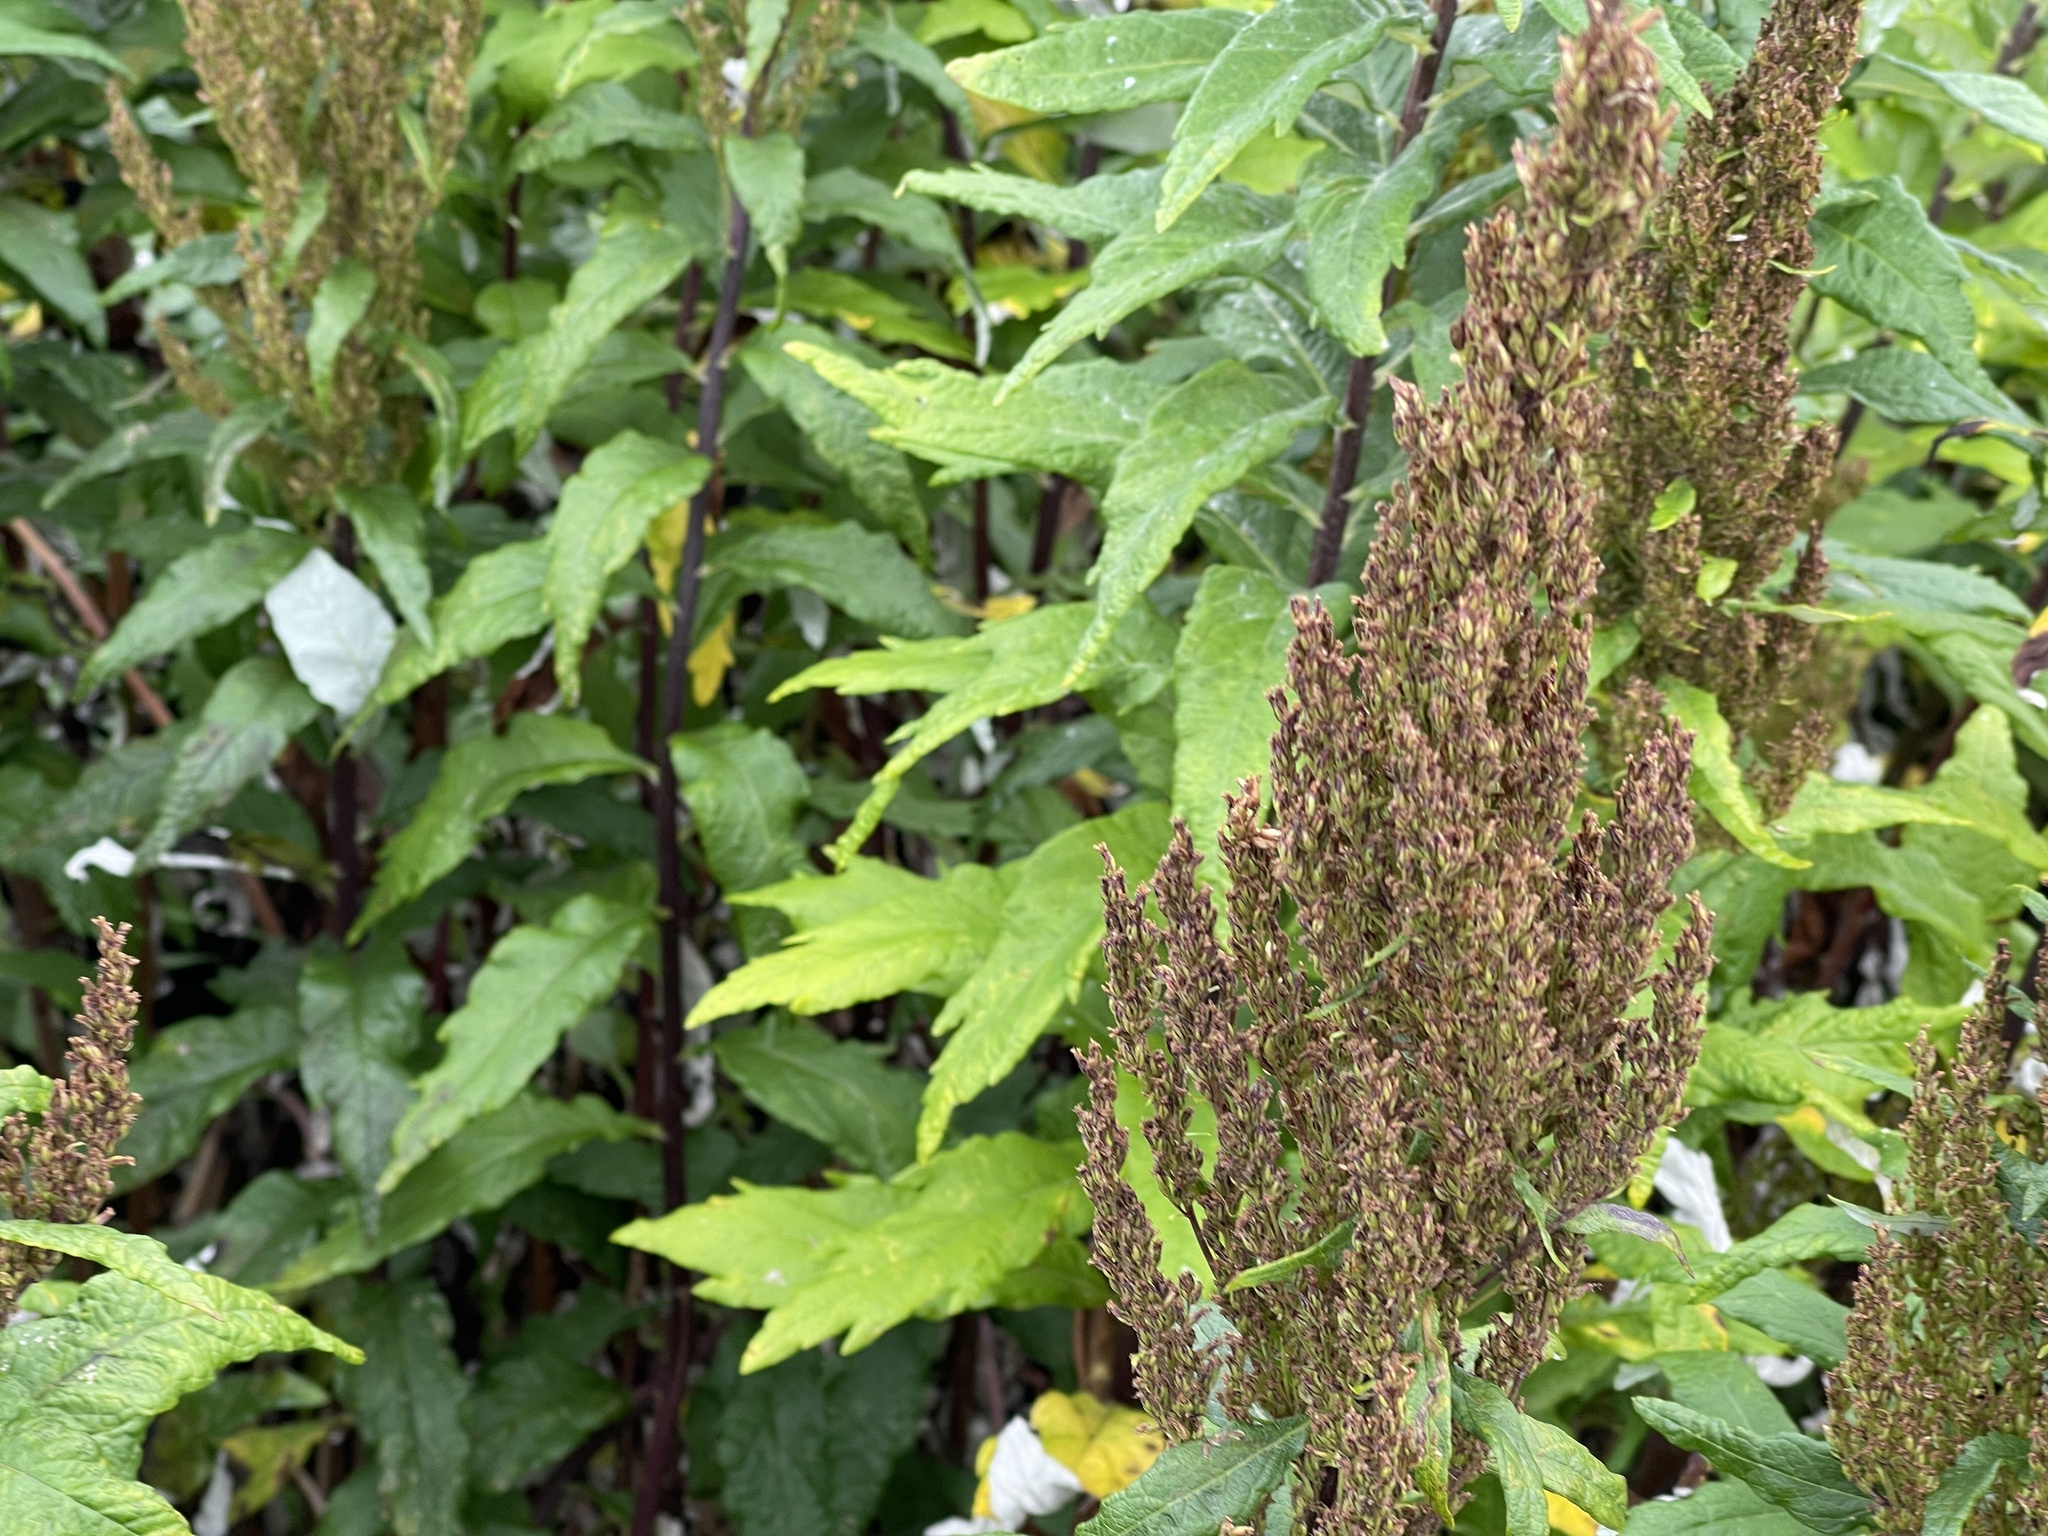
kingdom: Plantae
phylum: Tracheophyta
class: Magnoliopsida
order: Asterales
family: Asteraceae
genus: Artemisia
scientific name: Artemisia suksdorfii
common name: Suksdorf sagewort
